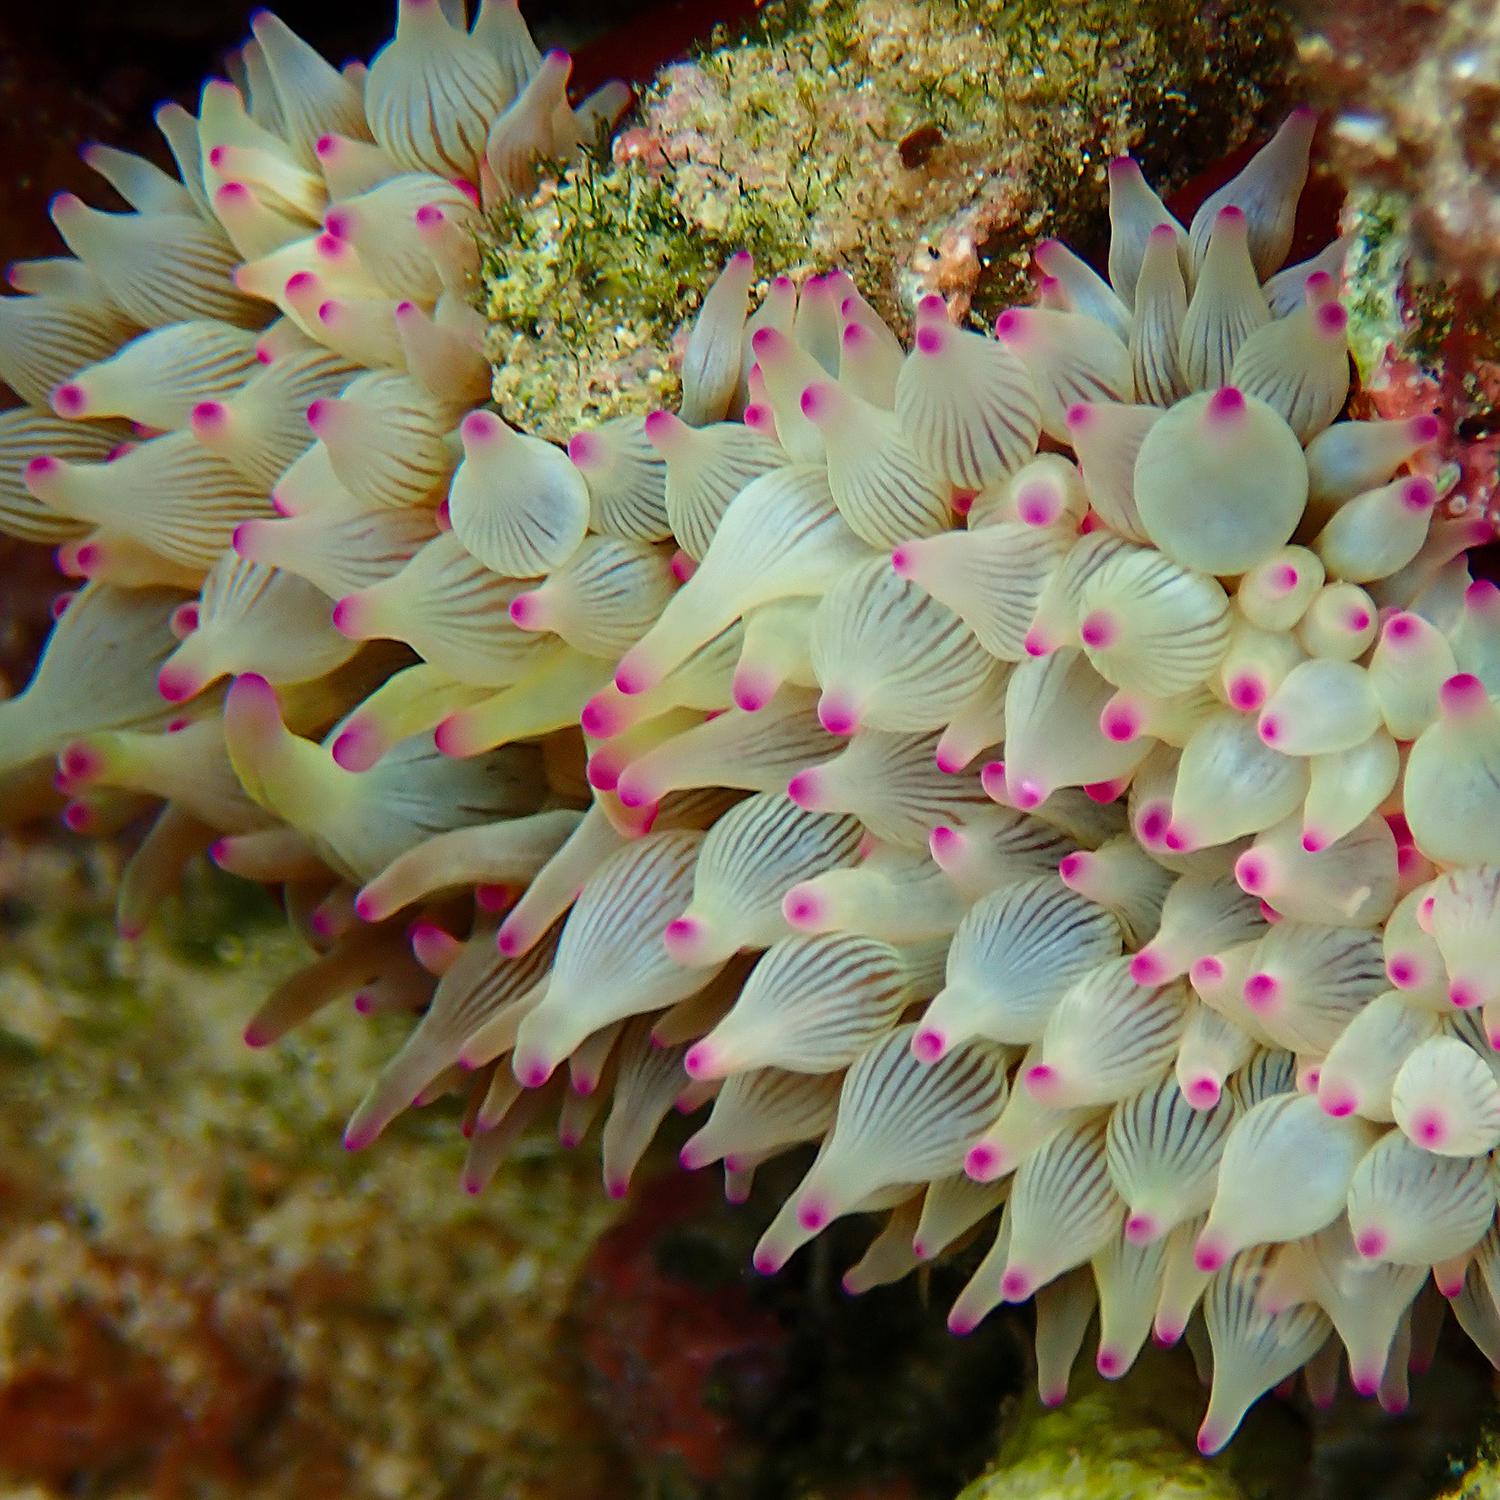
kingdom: Animalia
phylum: Cnidaria
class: Anthozoa
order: Actiniaria
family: Actiniidae
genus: Entacmaea
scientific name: Entacmaea quadricolor
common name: Bulb tentacle sea anemone
